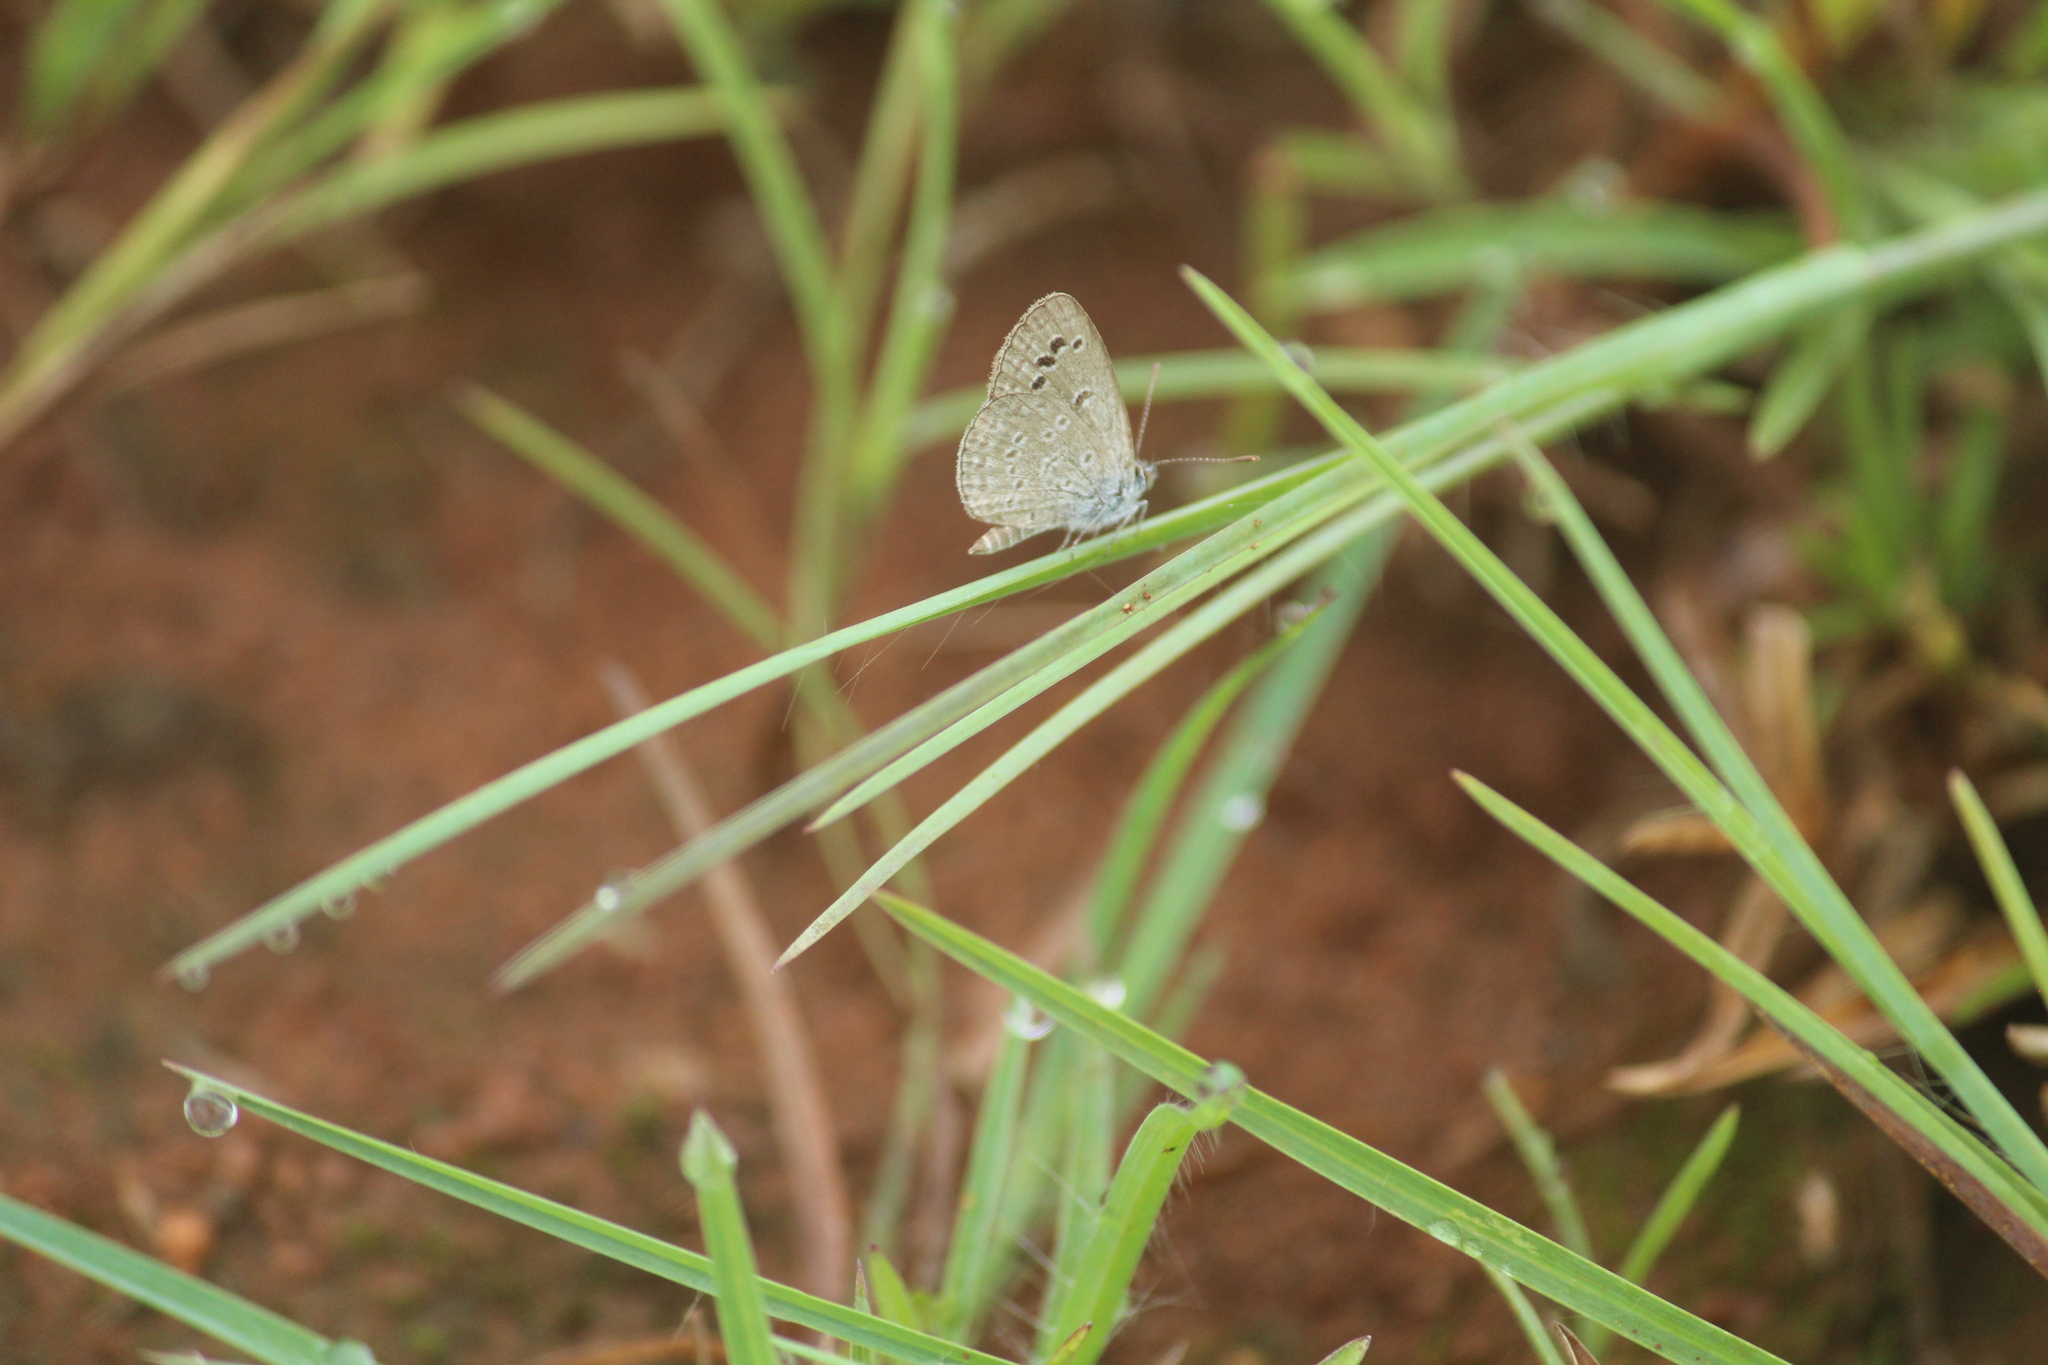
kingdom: Animalia
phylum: Arthropoda
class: Insecta
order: Lepidoptera
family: Lycaenidae
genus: Zizina
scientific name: Zizina otis
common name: Lesser grass blue
